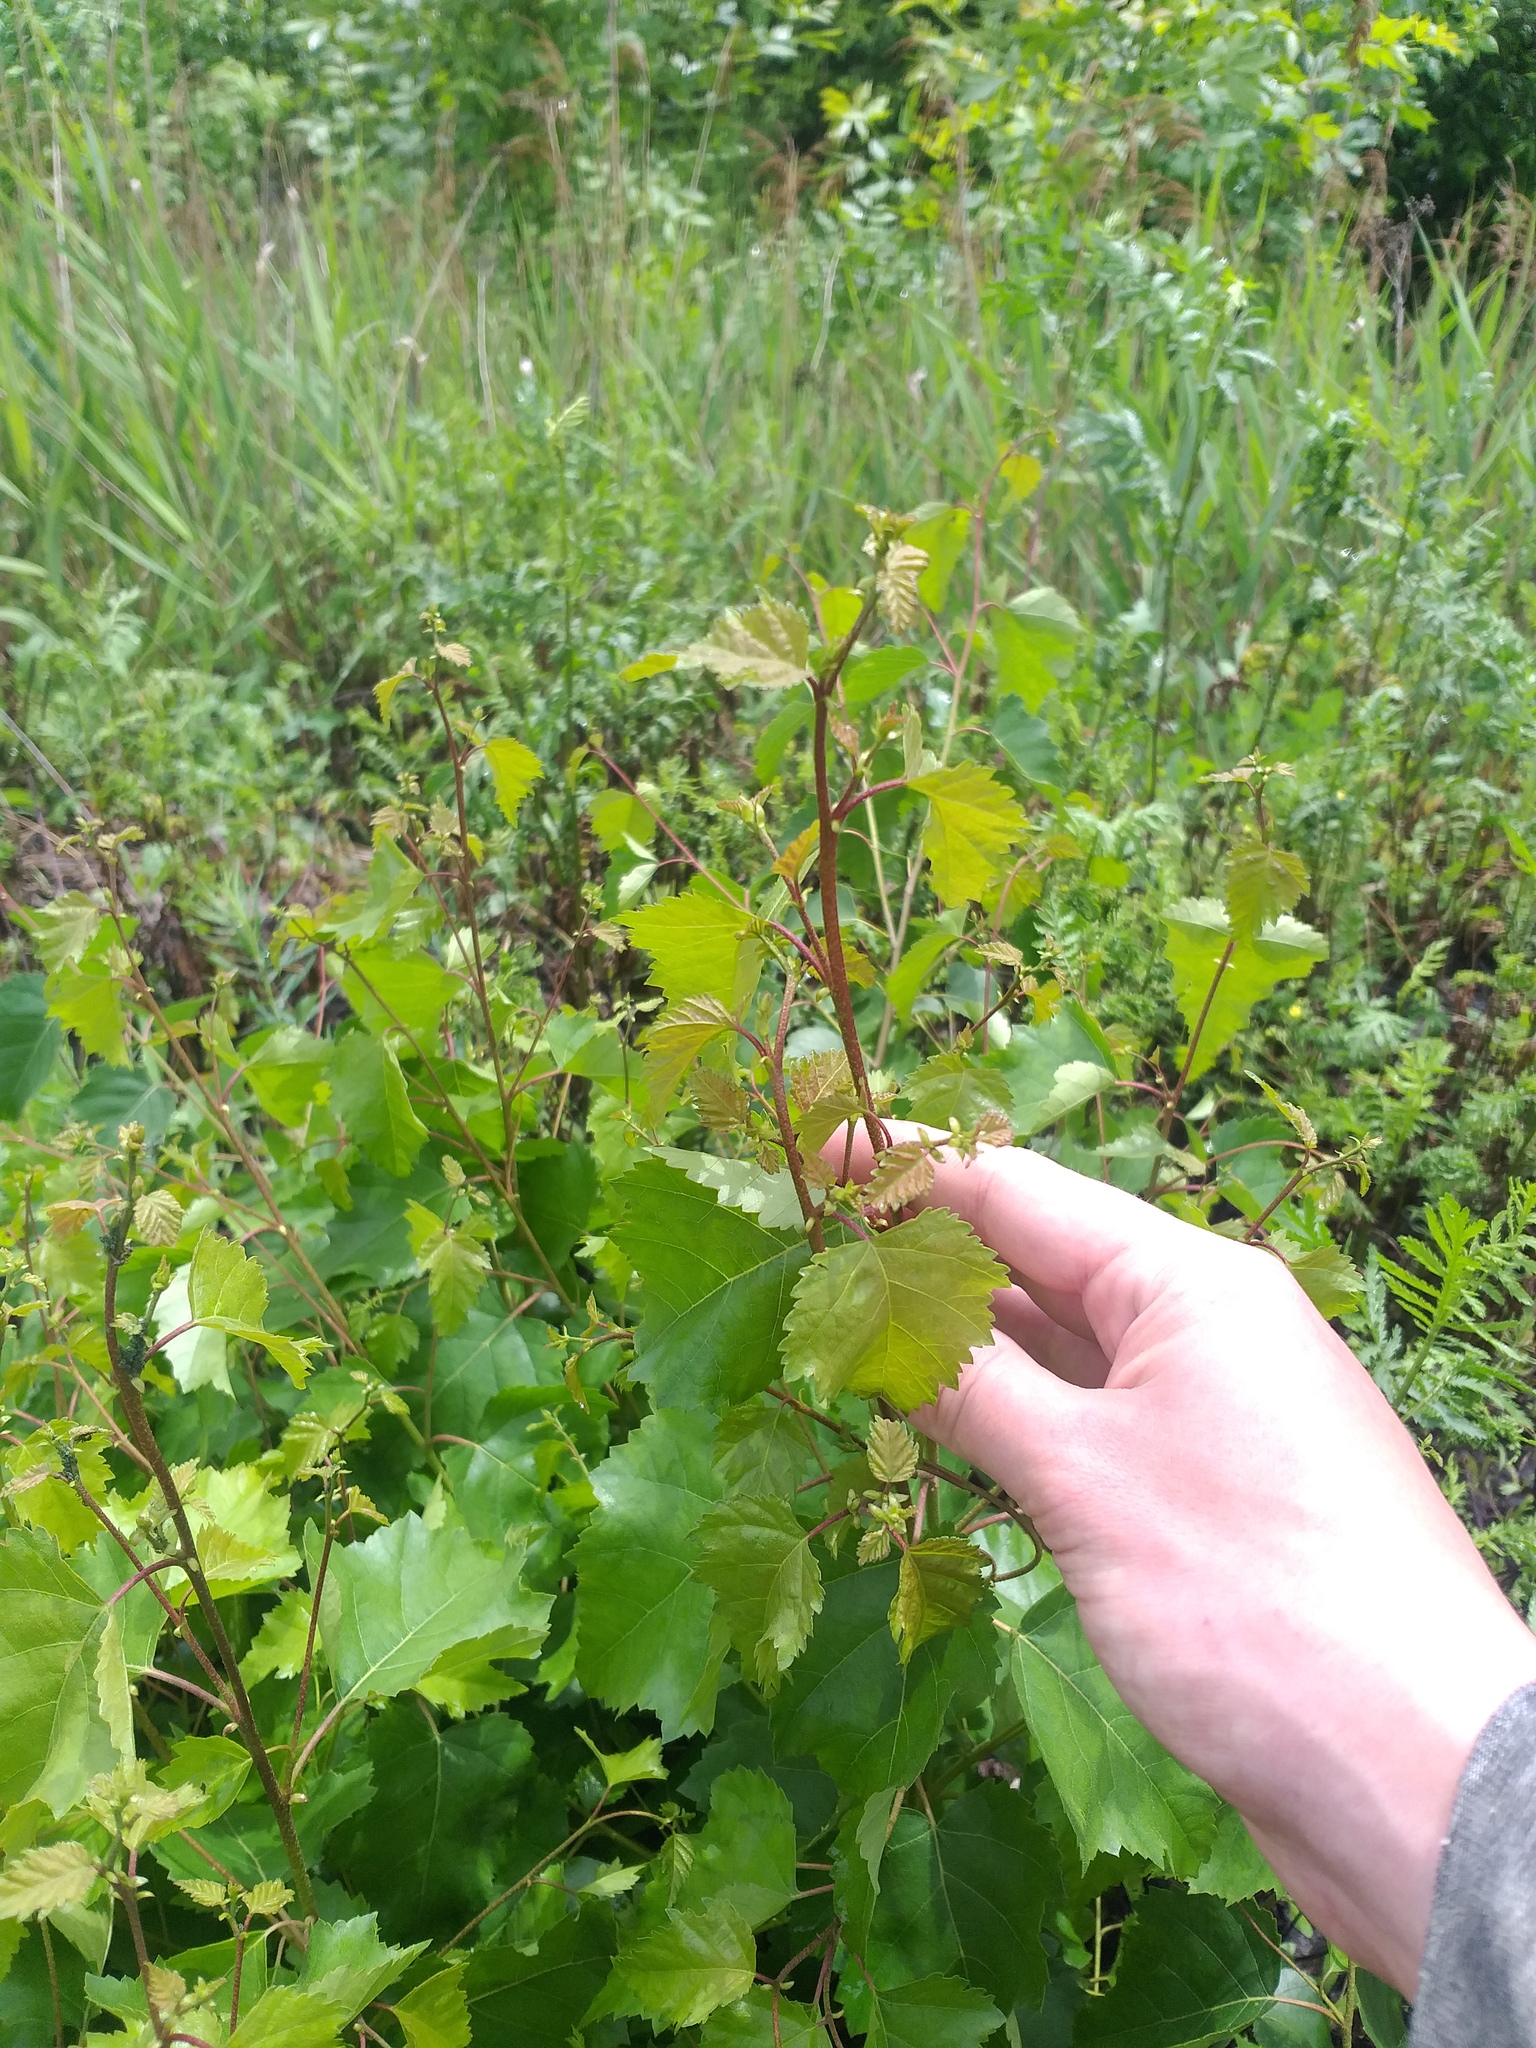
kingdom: Plantae
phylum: Tracheophyta
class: Magnoliopsida
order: Fagales
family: Betulaceae
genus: Betula
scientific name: Betula pendula
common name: Silver birch
